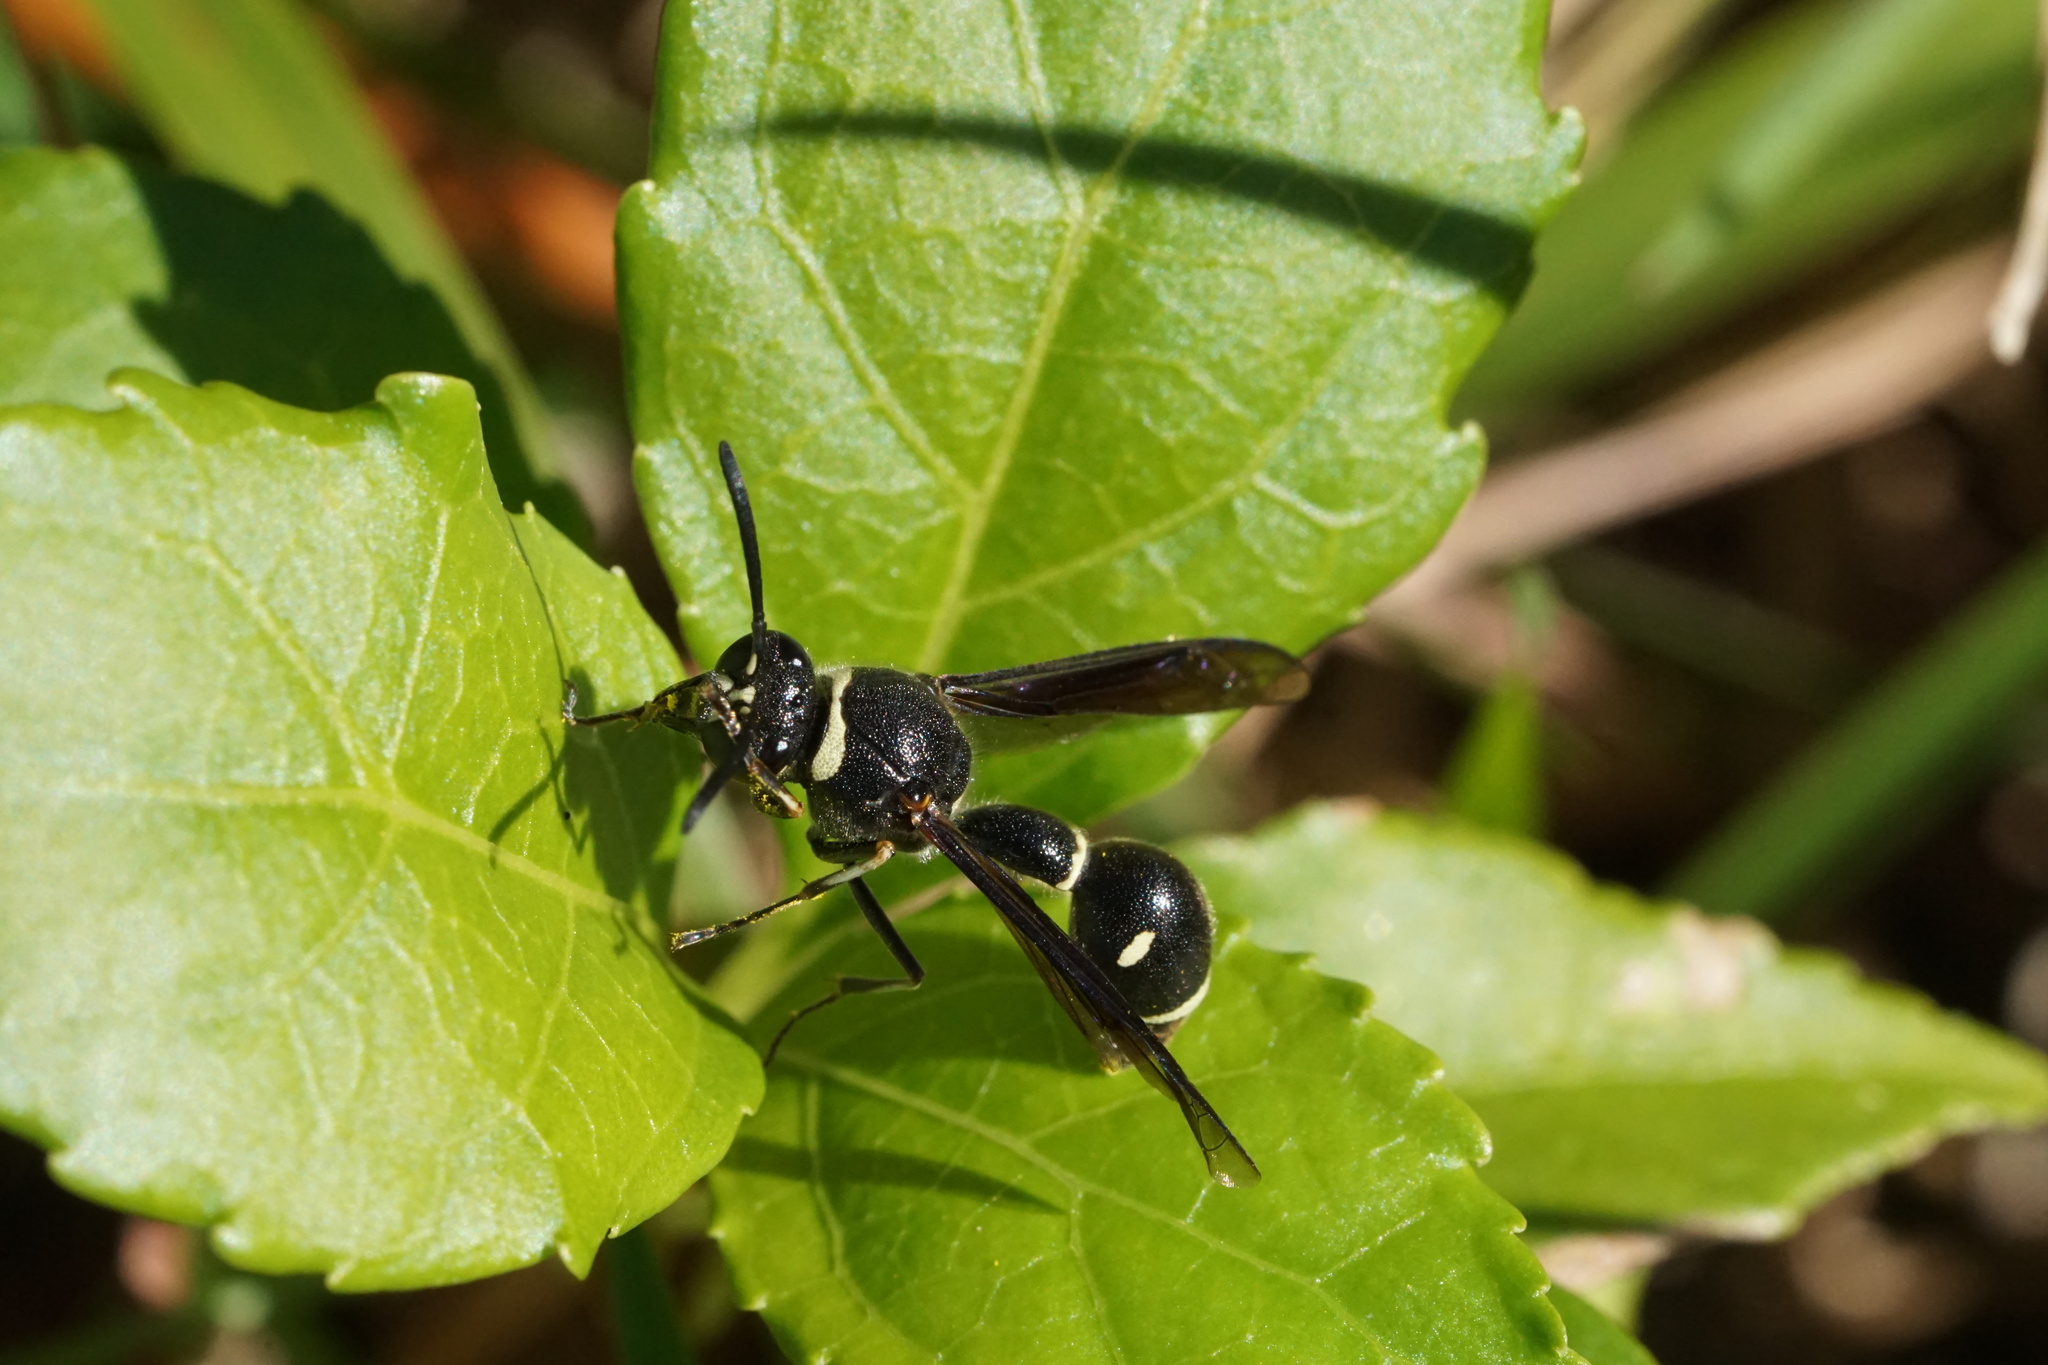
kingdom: Animalia
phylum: Arthropoda
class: Insecta
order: Hymenoptera
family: Vespidae
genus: Eumenes
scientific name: Eumenes fraternus
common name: Fraternal potter wasp
